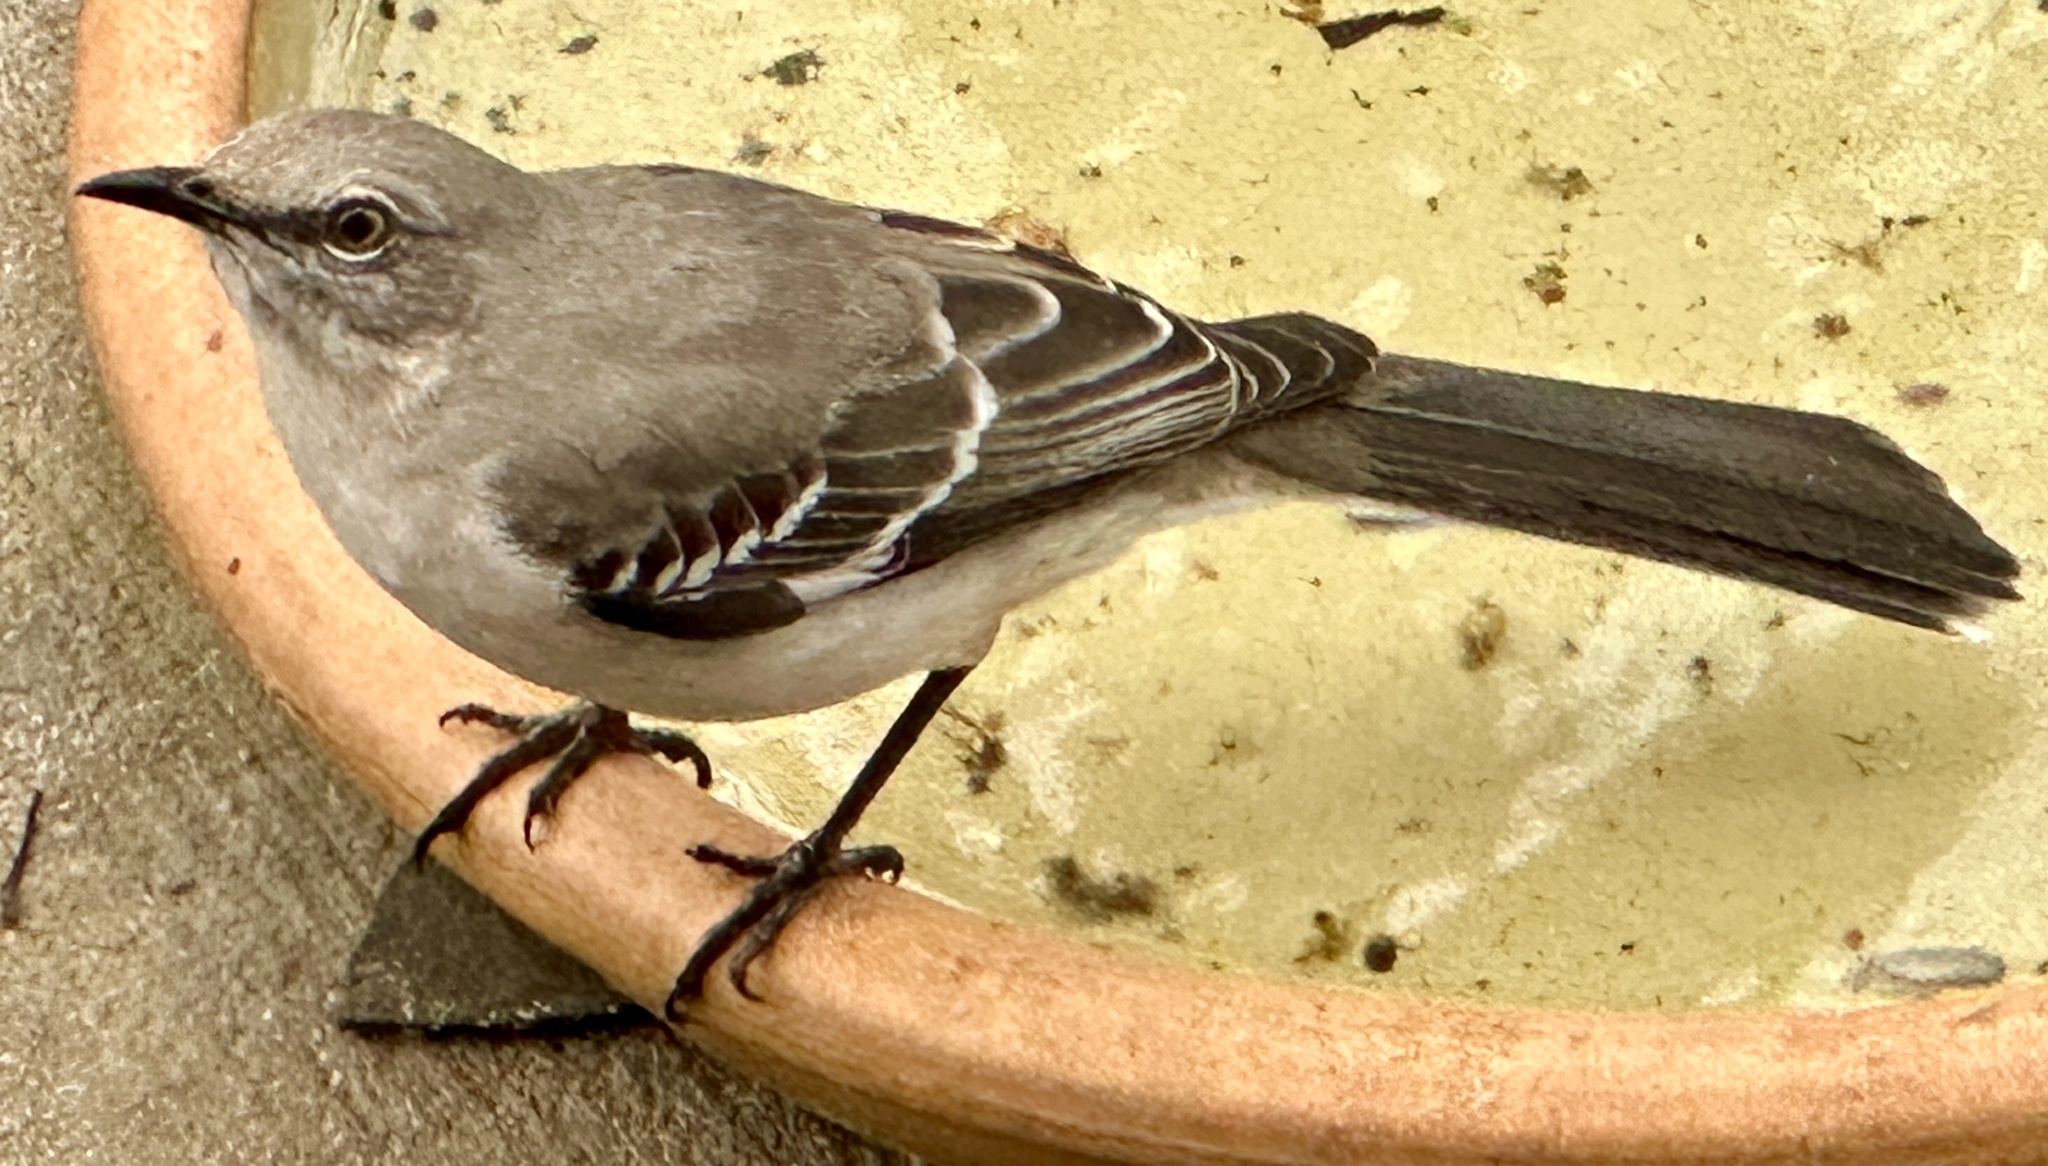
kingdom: Animalia
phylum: Chordata
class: Aves
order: Passeriformes
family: Mimidae
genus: Mimus
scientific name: Mimus polyglottos
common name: Northern mockingbird
